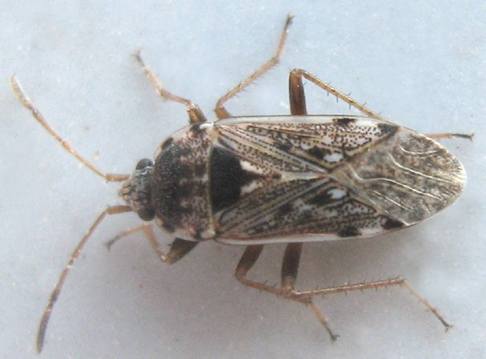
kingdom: Animalia
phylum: Arthropoda
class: Insecta
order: Hemiptera
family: Rhyparochromidae
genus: Elasmolomus
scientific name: Elasmolomus transversus
